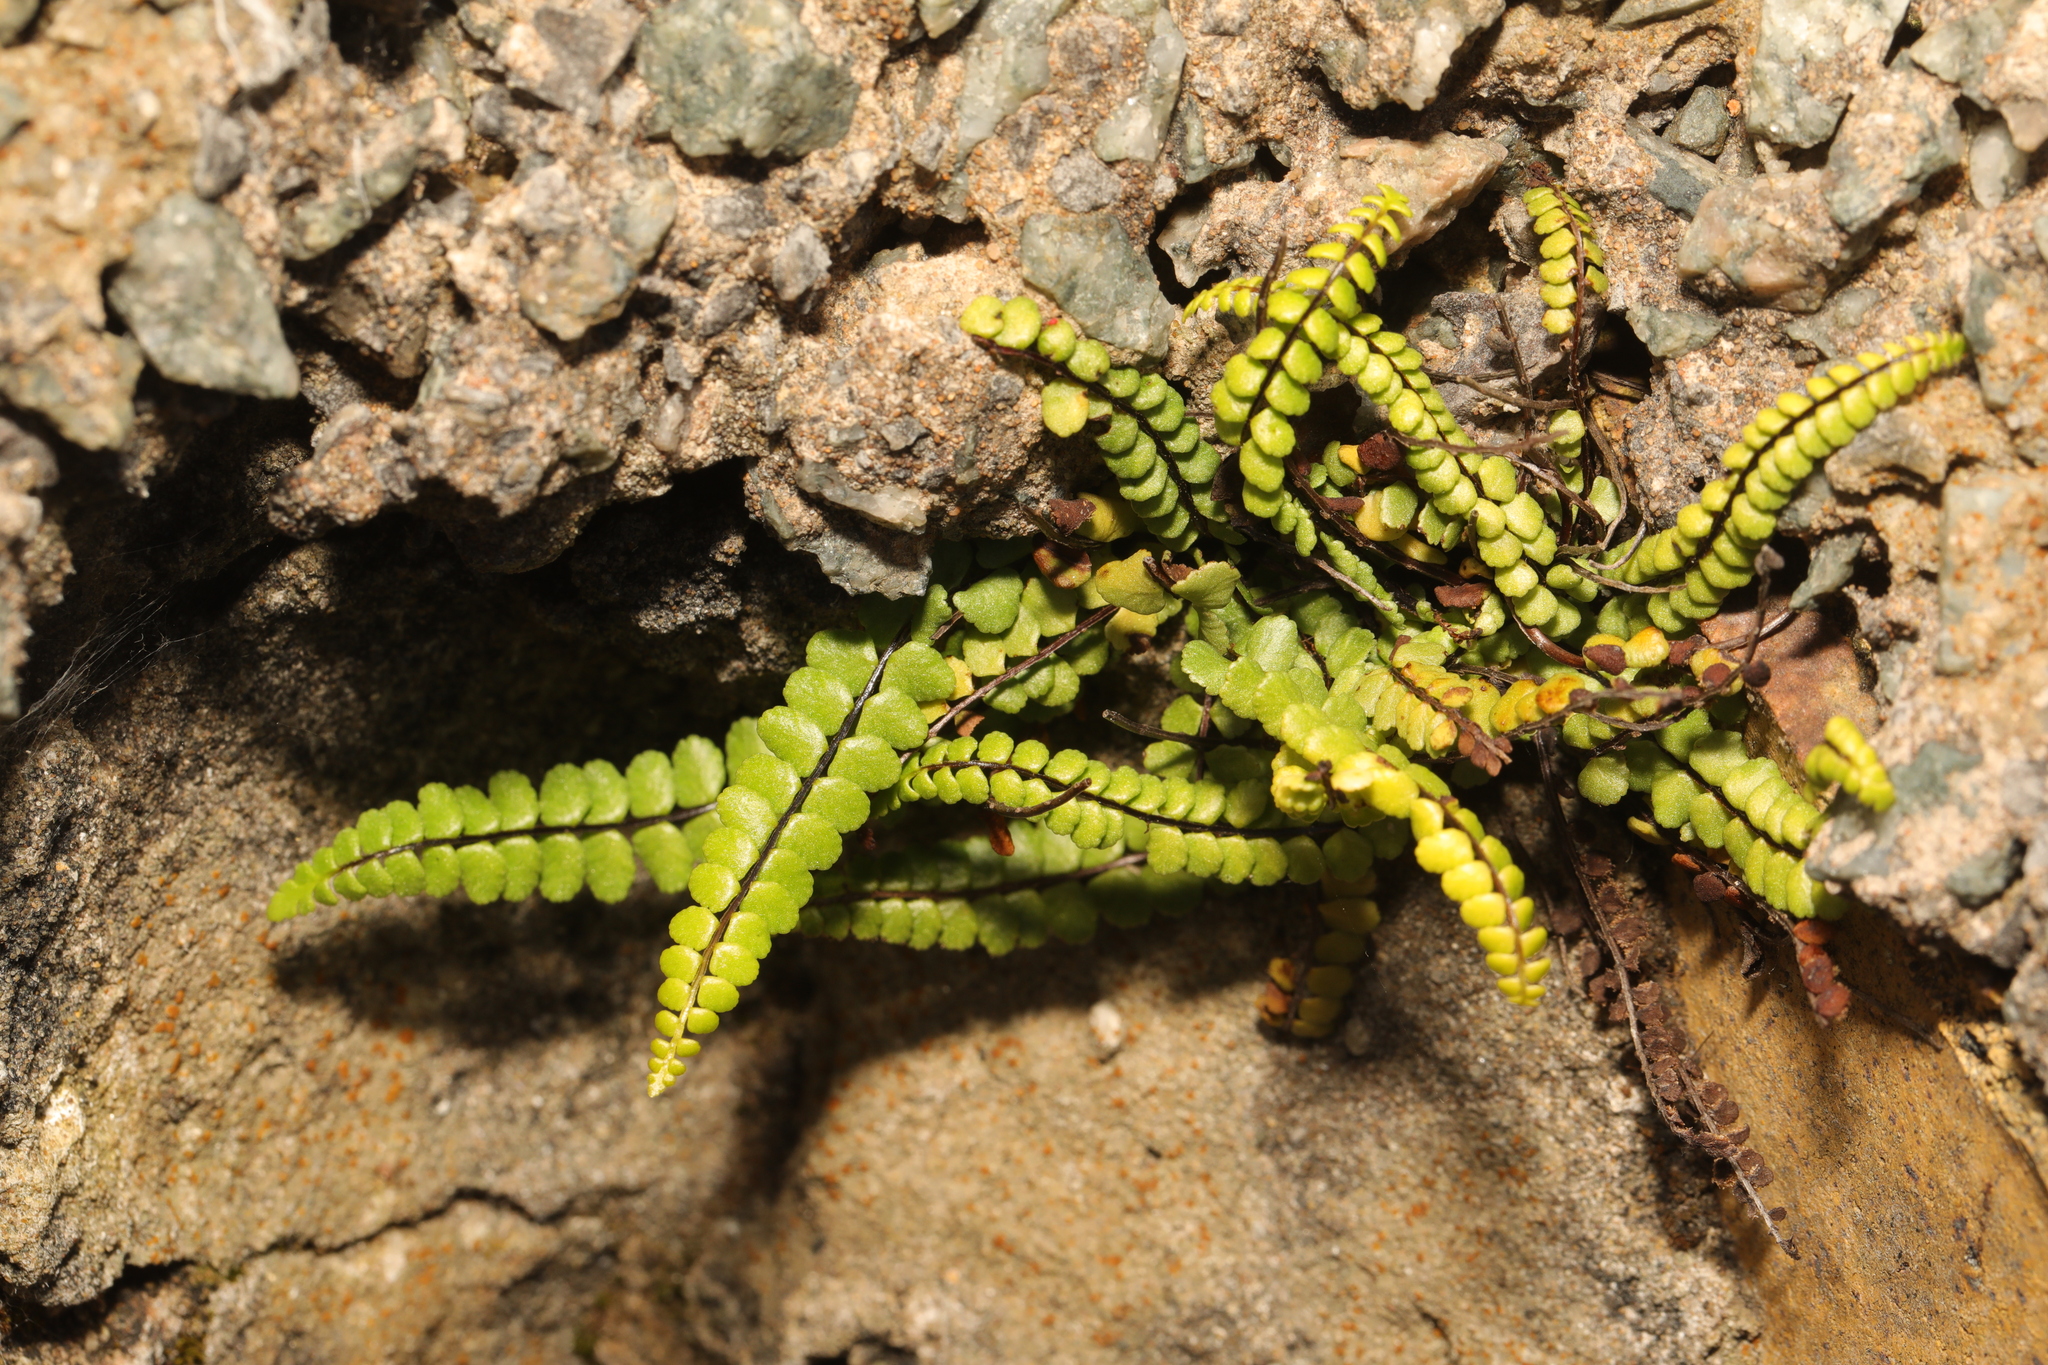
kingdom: Plantae
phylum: Tracheophyta
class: Polypodiopsida
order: Polypodiales
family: Aspleniaceae
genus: Asplenium
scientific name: Asplenium trichomanes
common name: Maidenhair spleenwort
